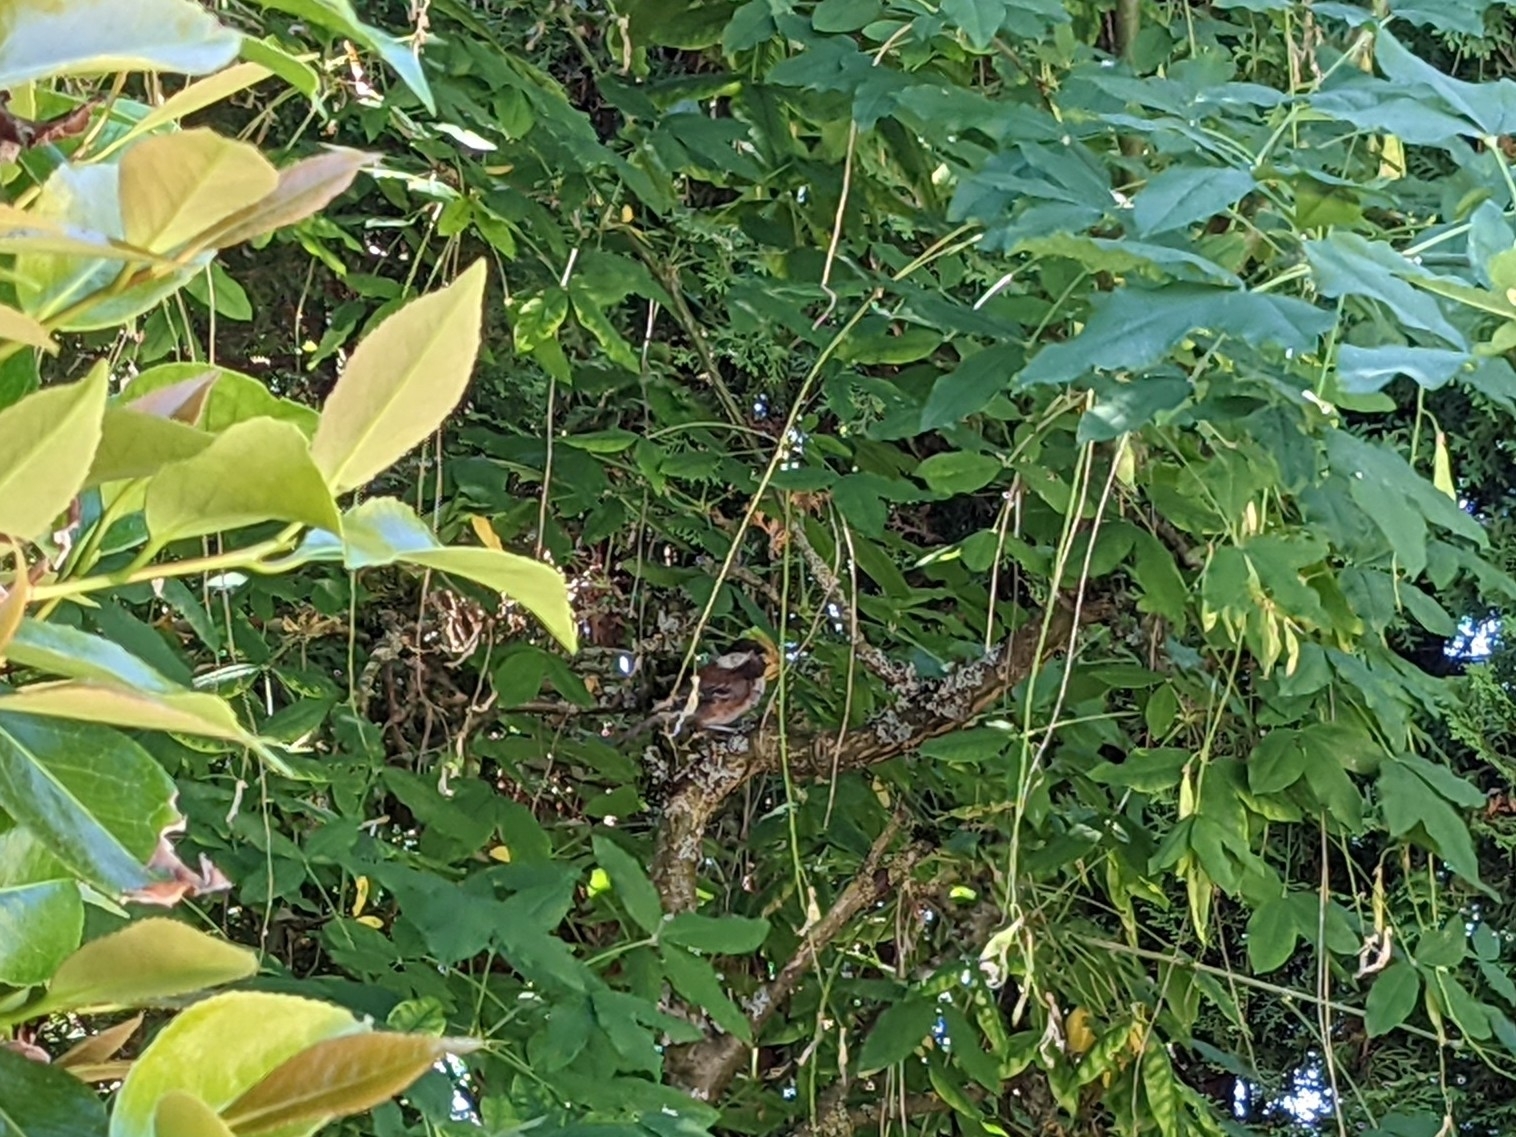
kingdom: Animalia
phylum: Chordata
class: Aves
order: Passeriformes
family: Paridae
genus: Poecile
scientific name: Poecile rufescens
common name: Chestnut-backed chickadee
